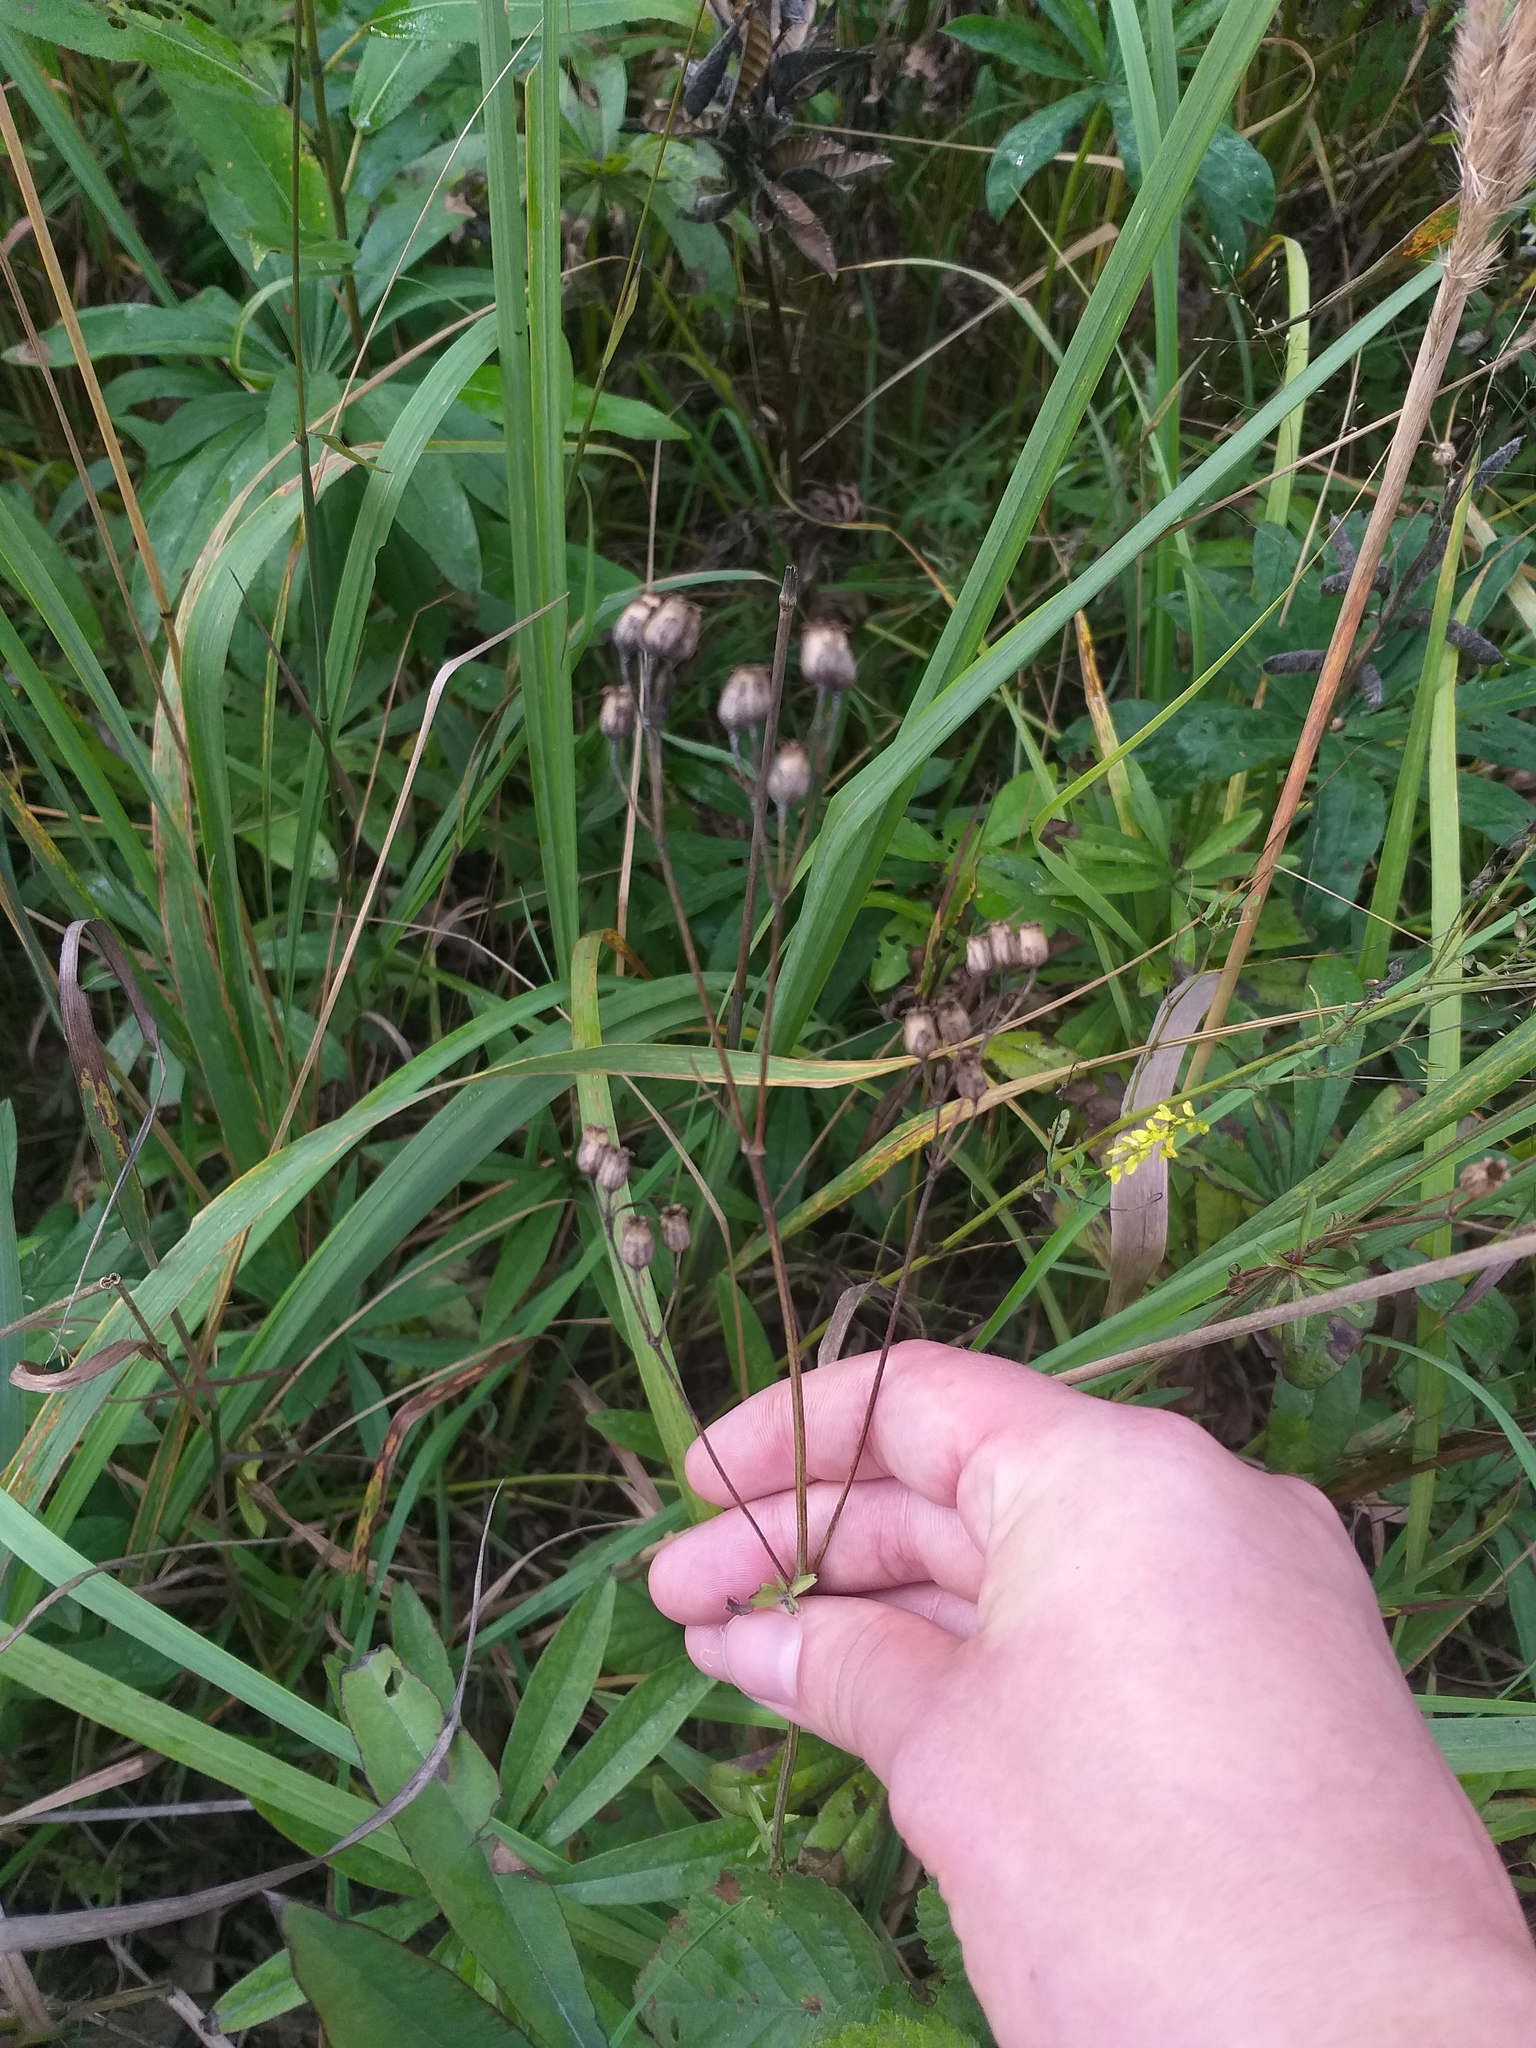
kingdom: Plantae
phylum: Tracheophyta
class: Magnoliopsida
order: Caryophyllales
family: Caryophyllaceae
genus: Silene
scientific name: Silene flos-cuculi
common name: Ragged-robin
